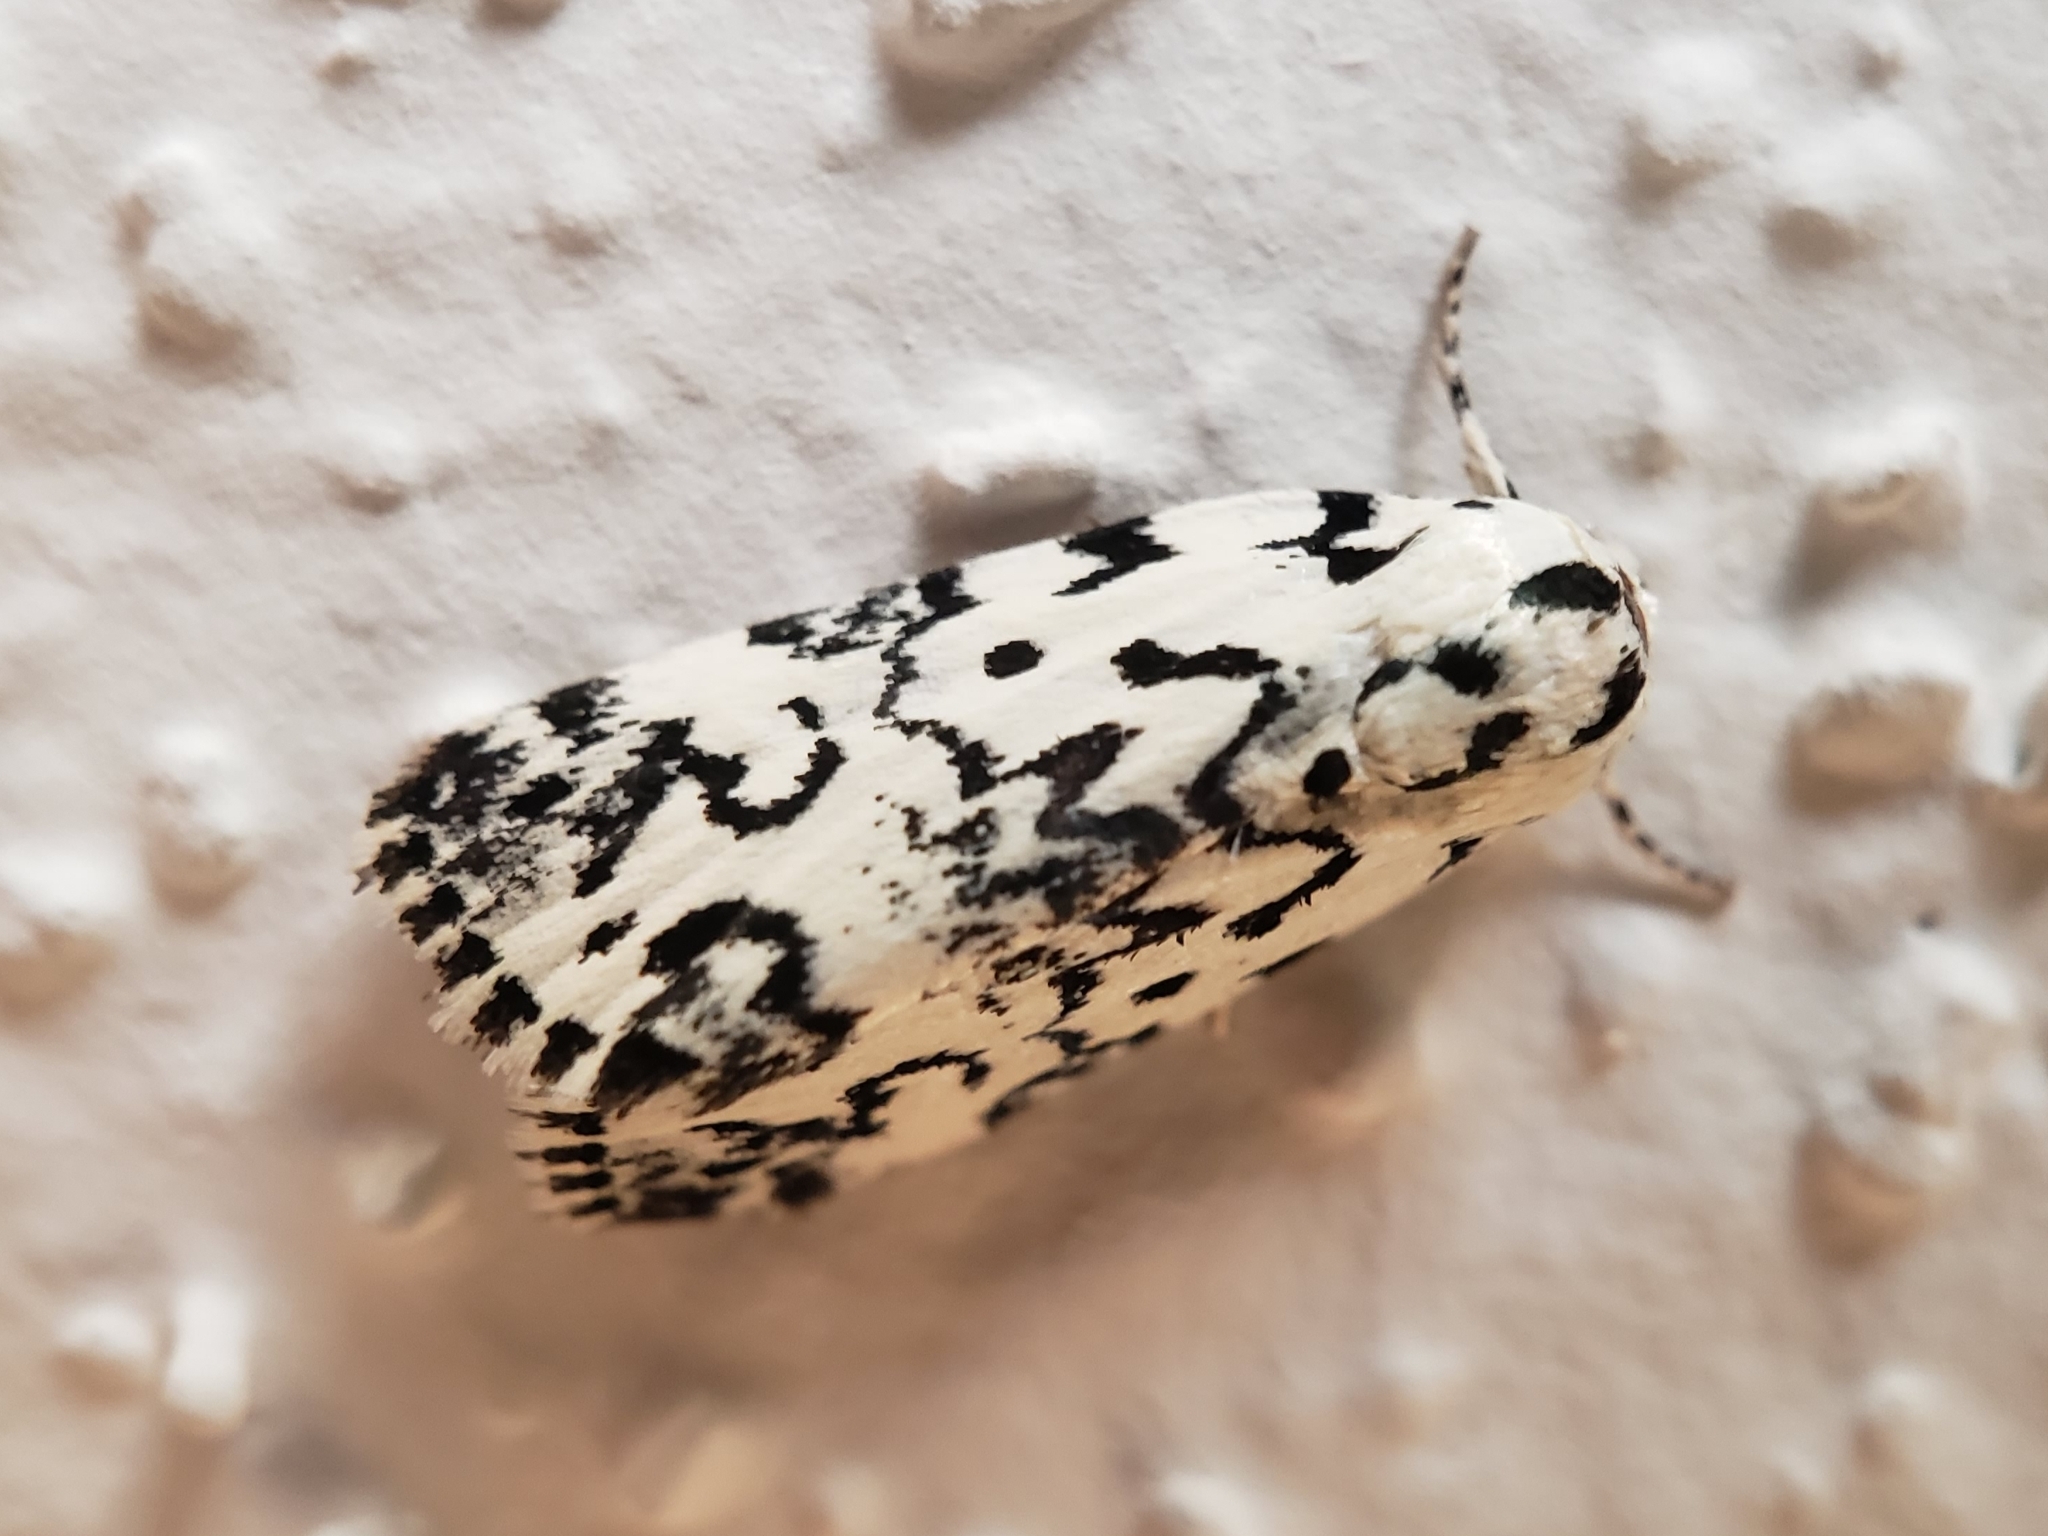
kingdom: Animalia
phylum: Arthropoda
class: Insecta
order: Lepidoptera
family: Noctuidae
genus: Polygrammate
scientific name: Polygrammate hebraeicum
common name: Hebrew moth
